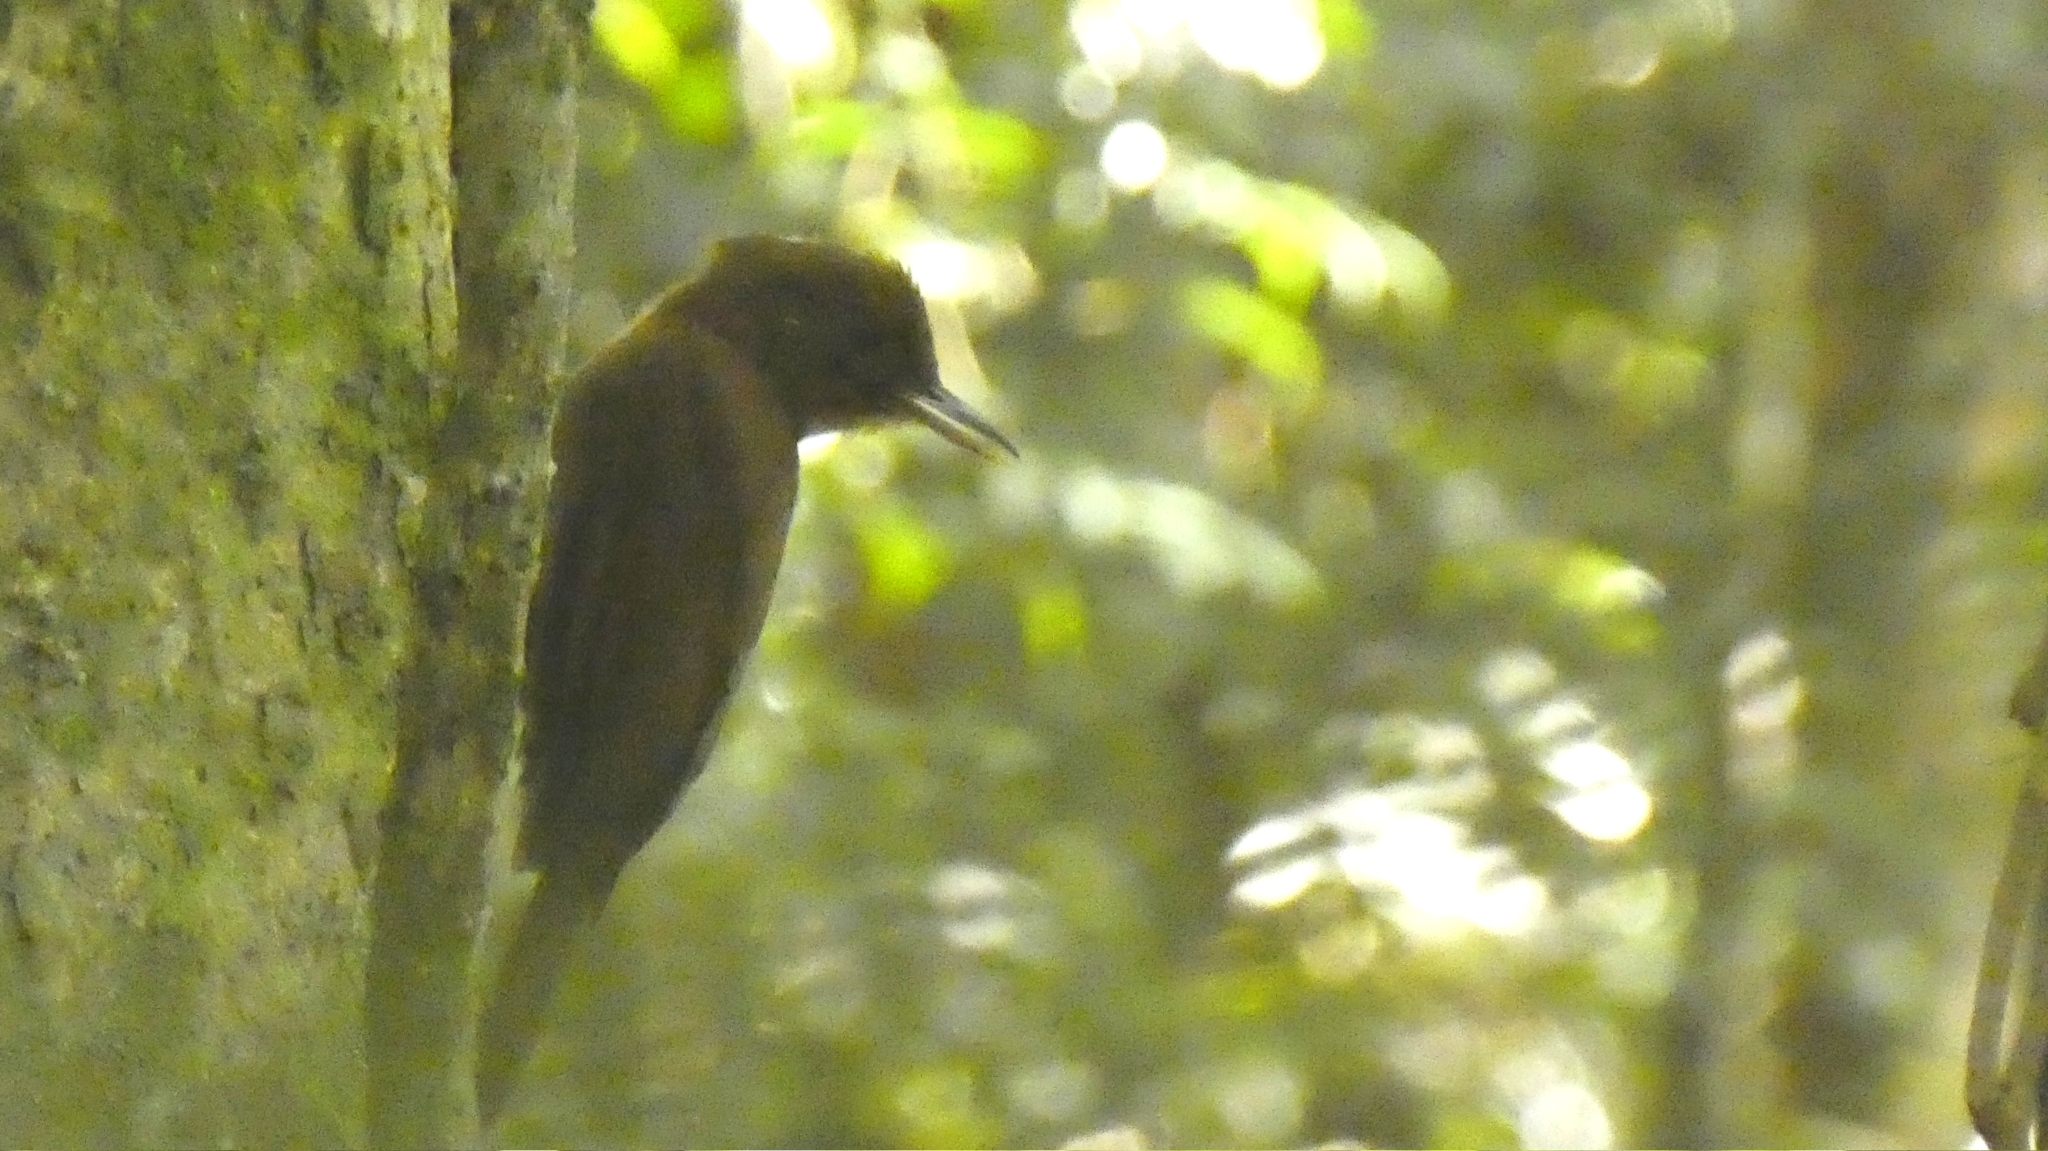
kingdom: Animalia
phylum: Chordata
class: Aves
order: Passeriformes
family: Furnariidae
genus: Dendrocincla
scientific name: Dendrocincla fuliginosa
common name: Plain-brown woodcreeper
